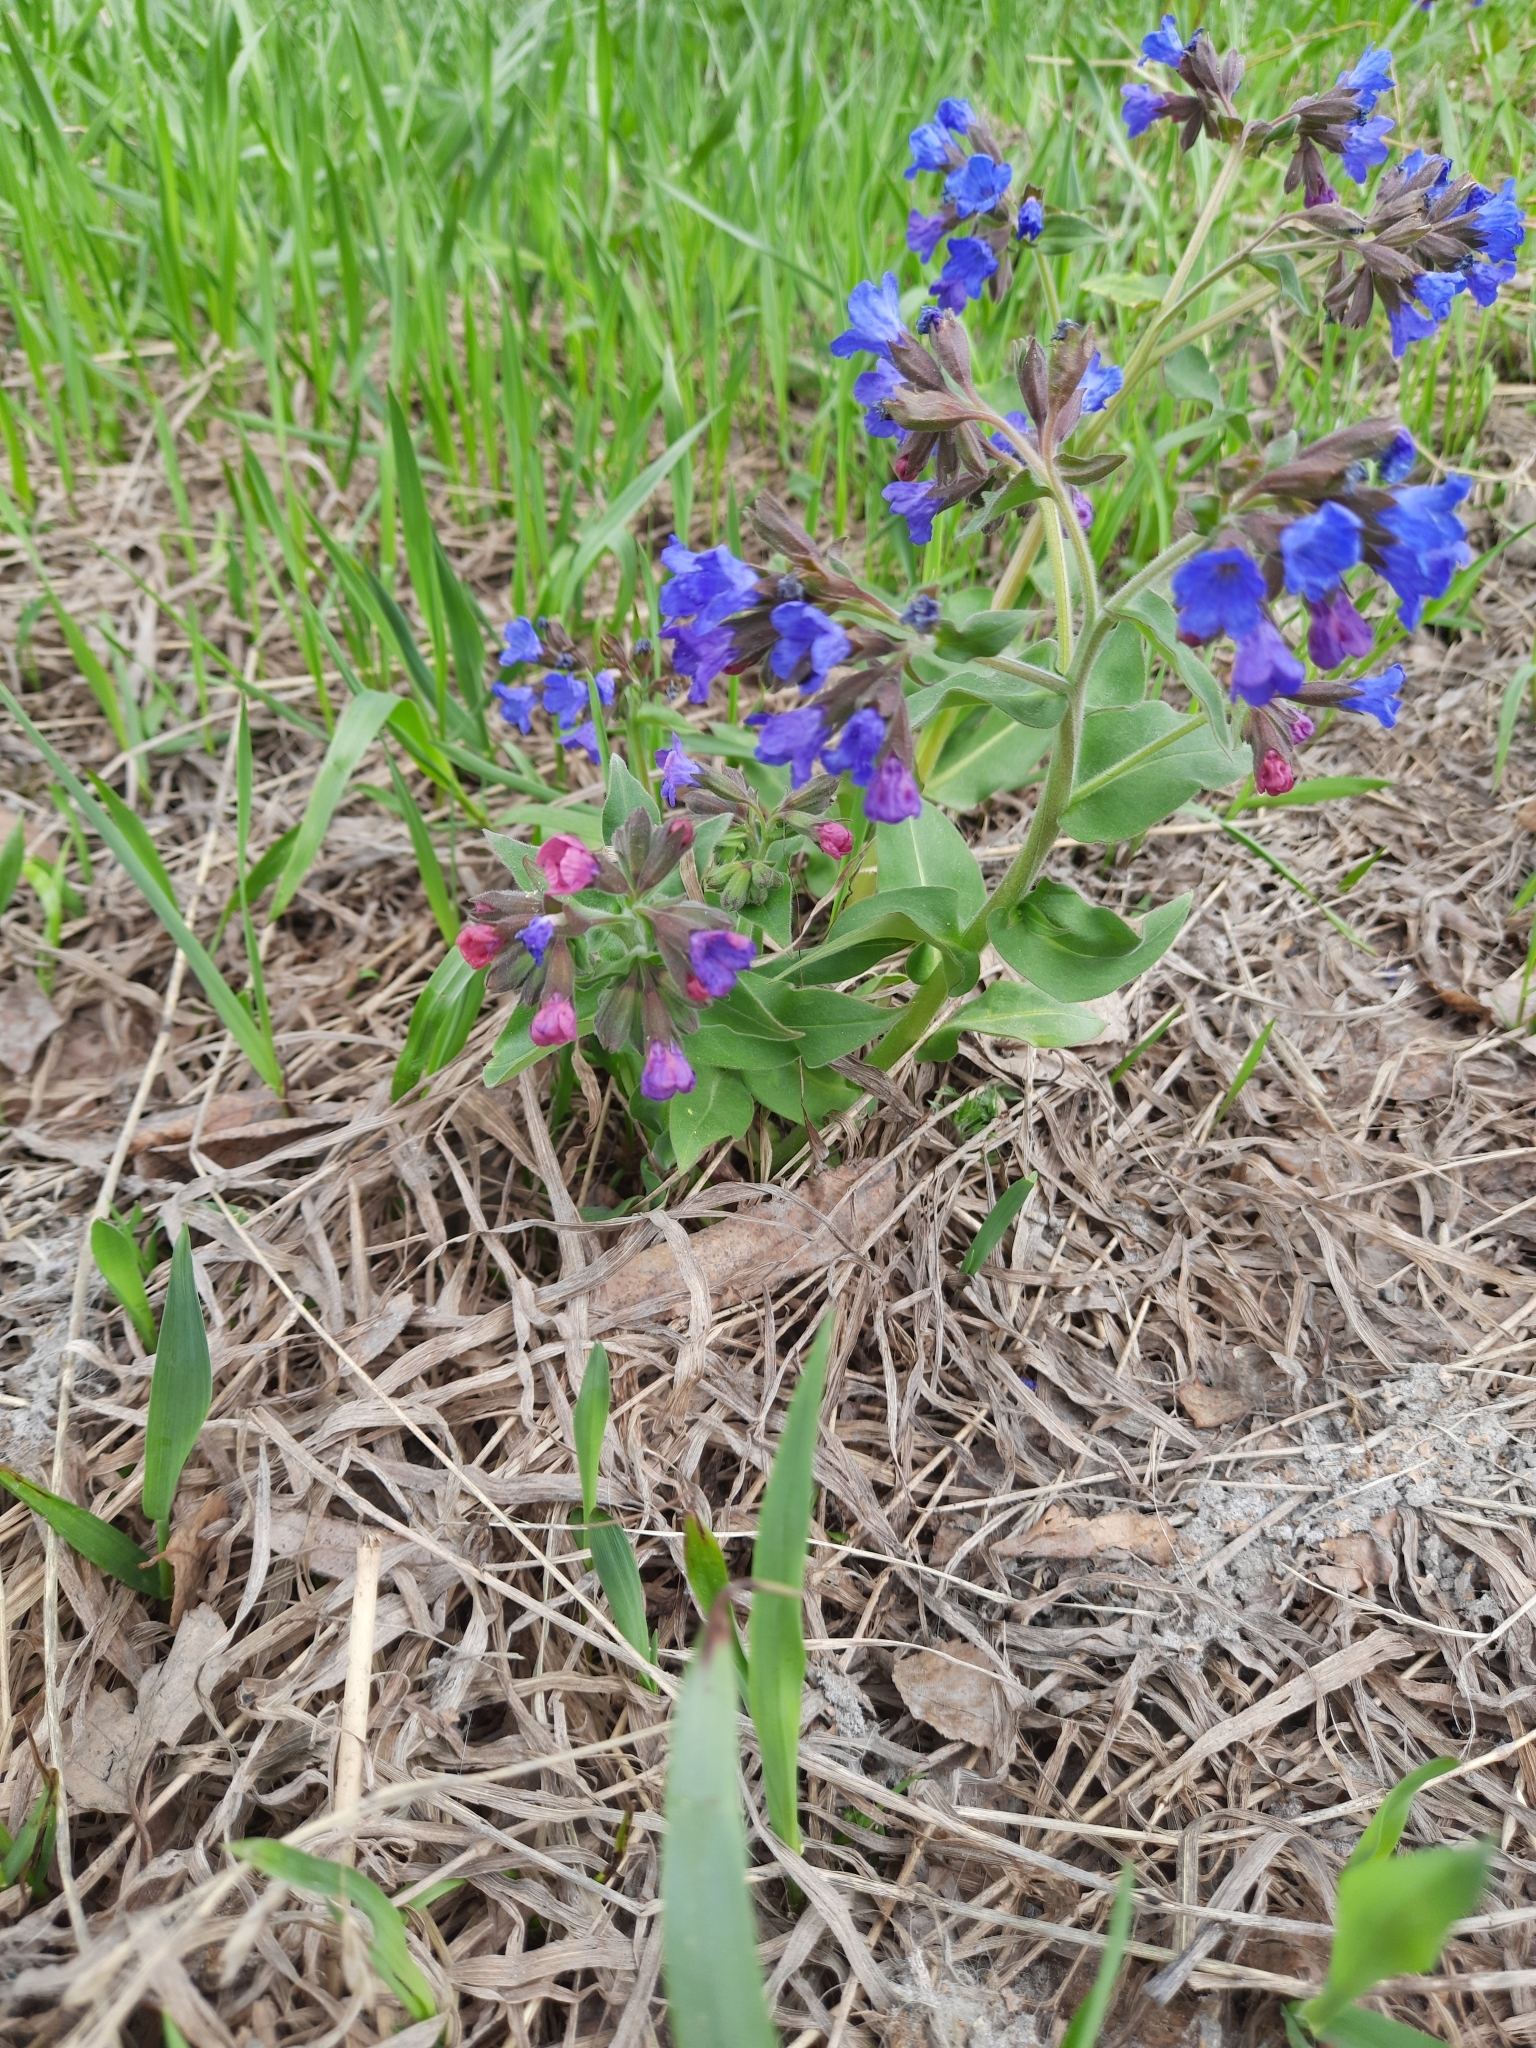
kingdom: Plantae
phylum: Tracheophyta
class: Magnoliopsida
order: Boraginales
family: Boraginaceae
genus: Pulmonaria
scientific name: Pulmonaria mollis
